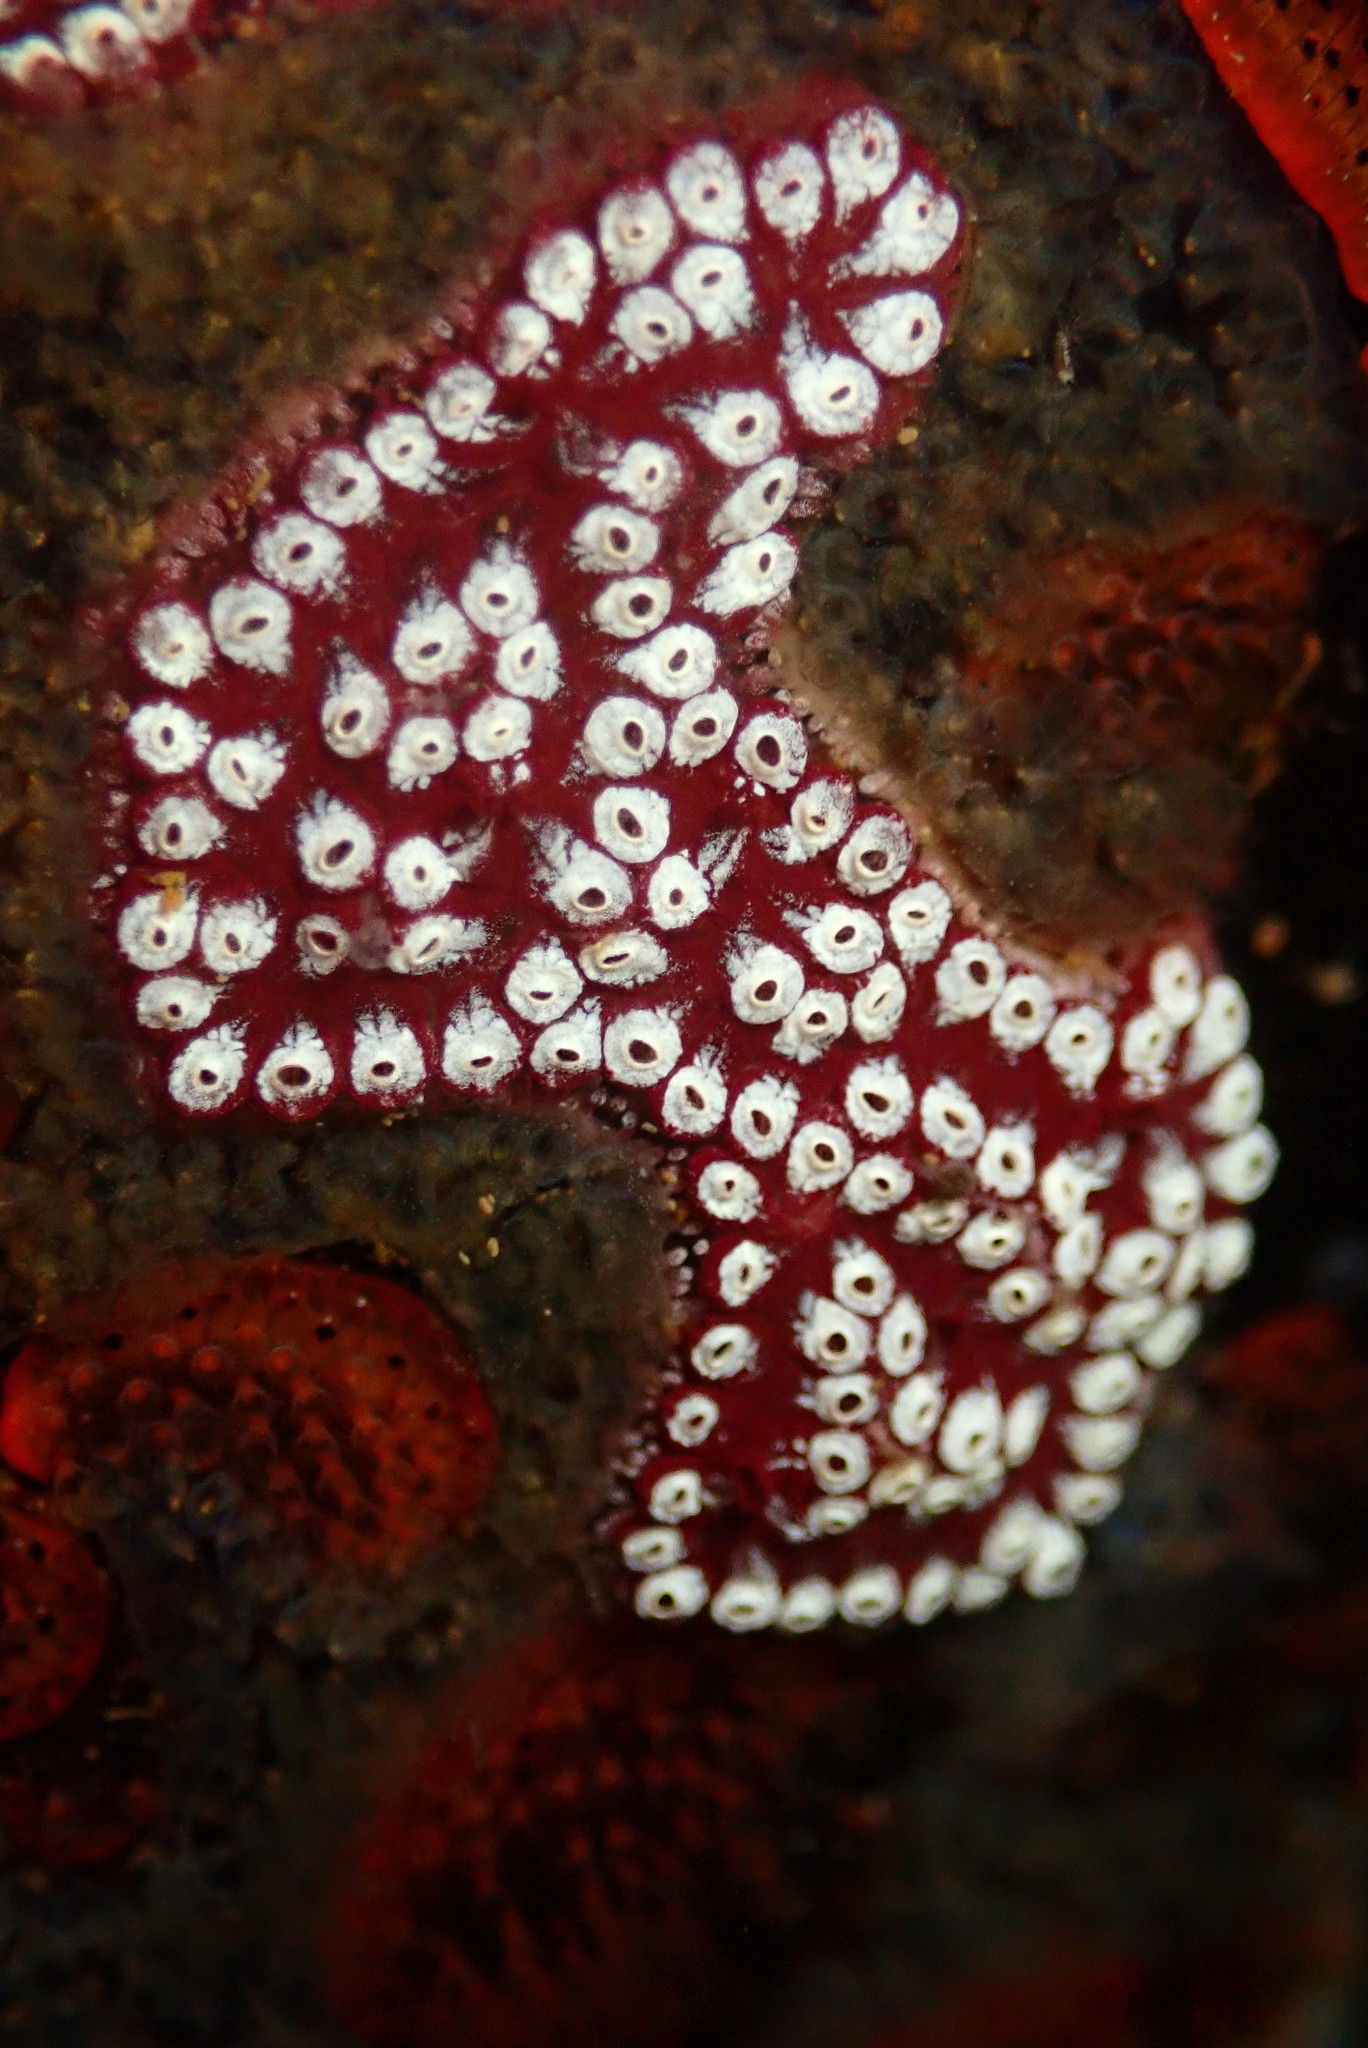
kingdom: Animalia
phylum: Chordata
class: Ascidiacea
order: Stolidobranchia
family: Styelidae
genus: Botrylloides
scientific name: Botrylloides diegensis
